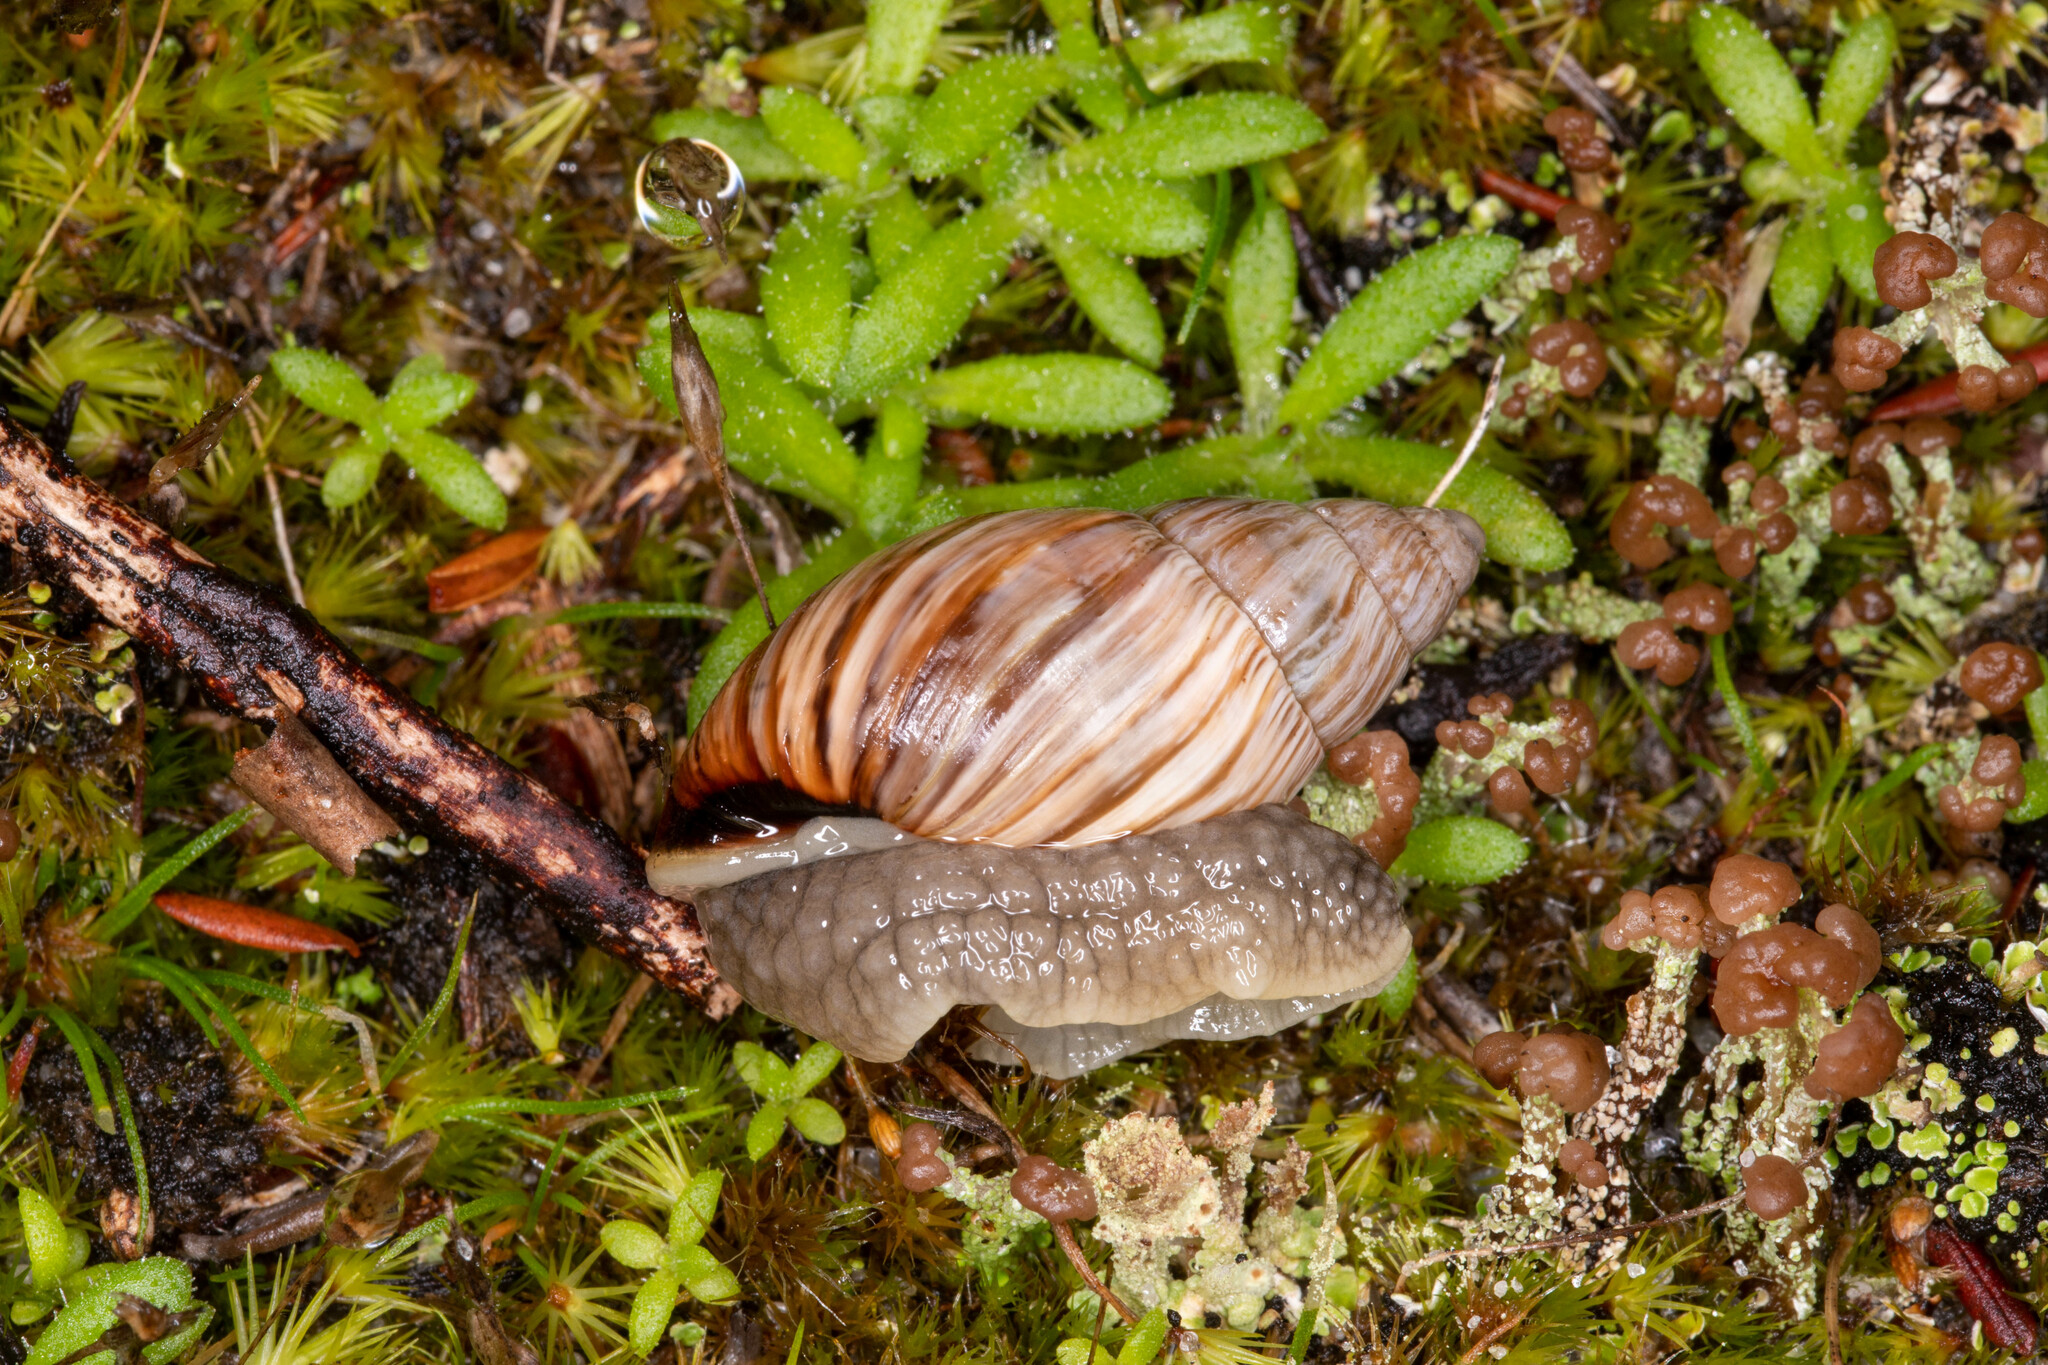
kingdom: Animalia
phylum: Mollusca
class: Gastropoda
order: Stylommatophora
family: Bothriembryontidae
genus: Bothriembryon
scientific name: Bothriembryon kingii
